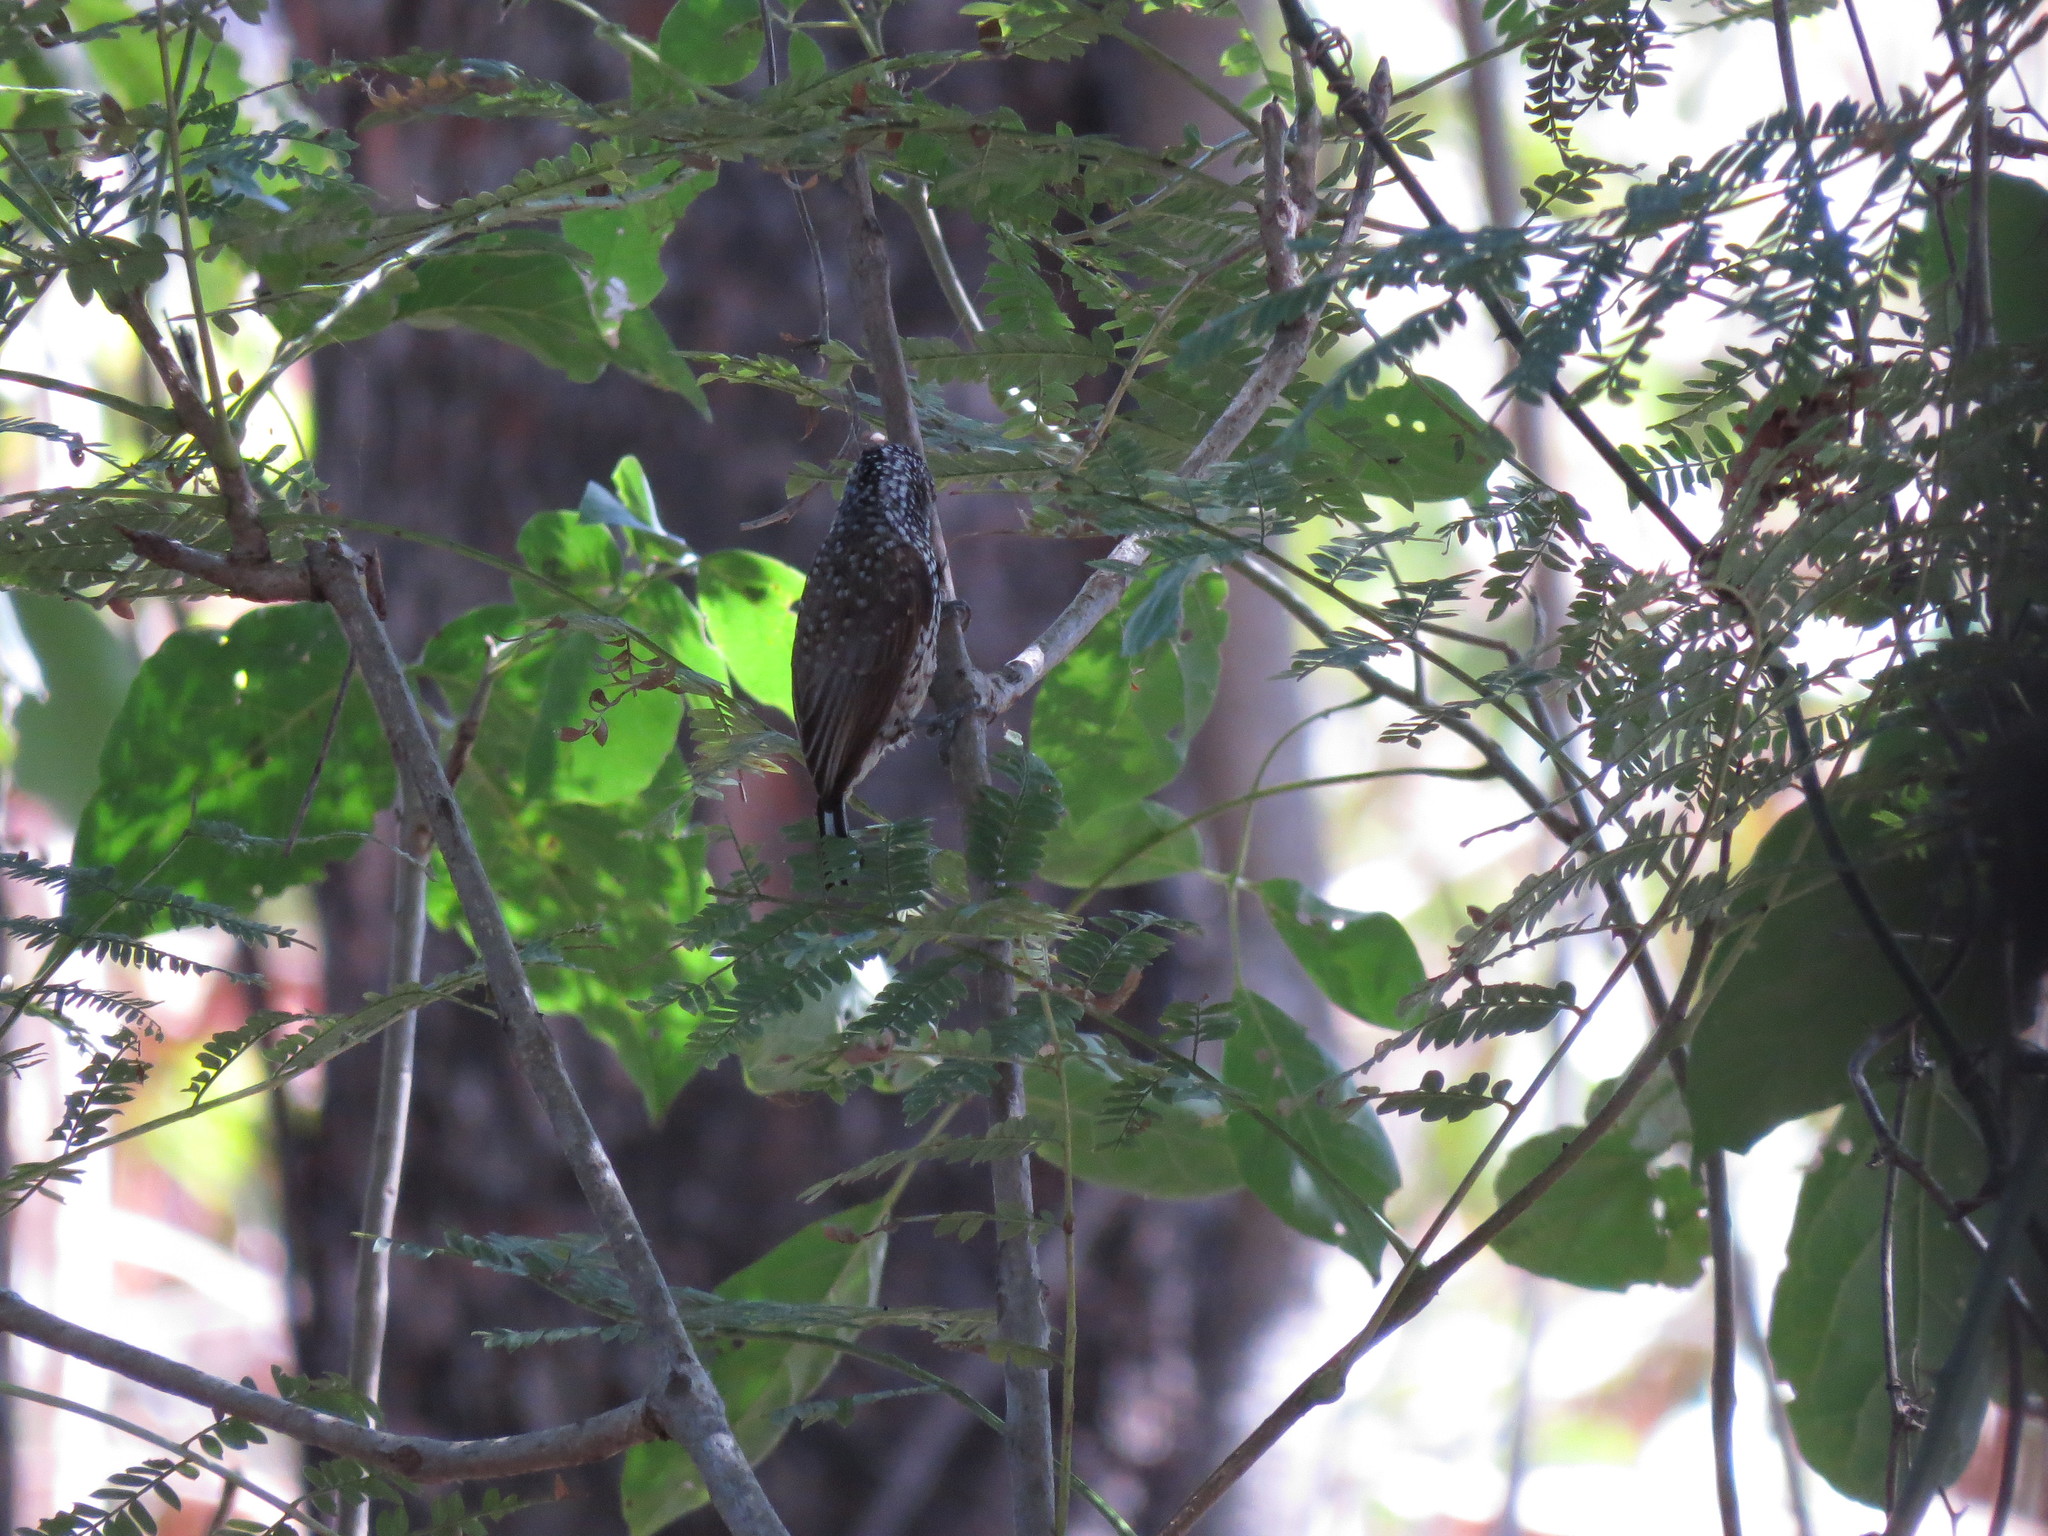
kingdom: Animalia
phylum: Chordata
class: Aves
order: Piciformes
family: Picidae
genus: Picumnus
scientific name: Picumnus albosquamatus
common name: White-wedged piculet
